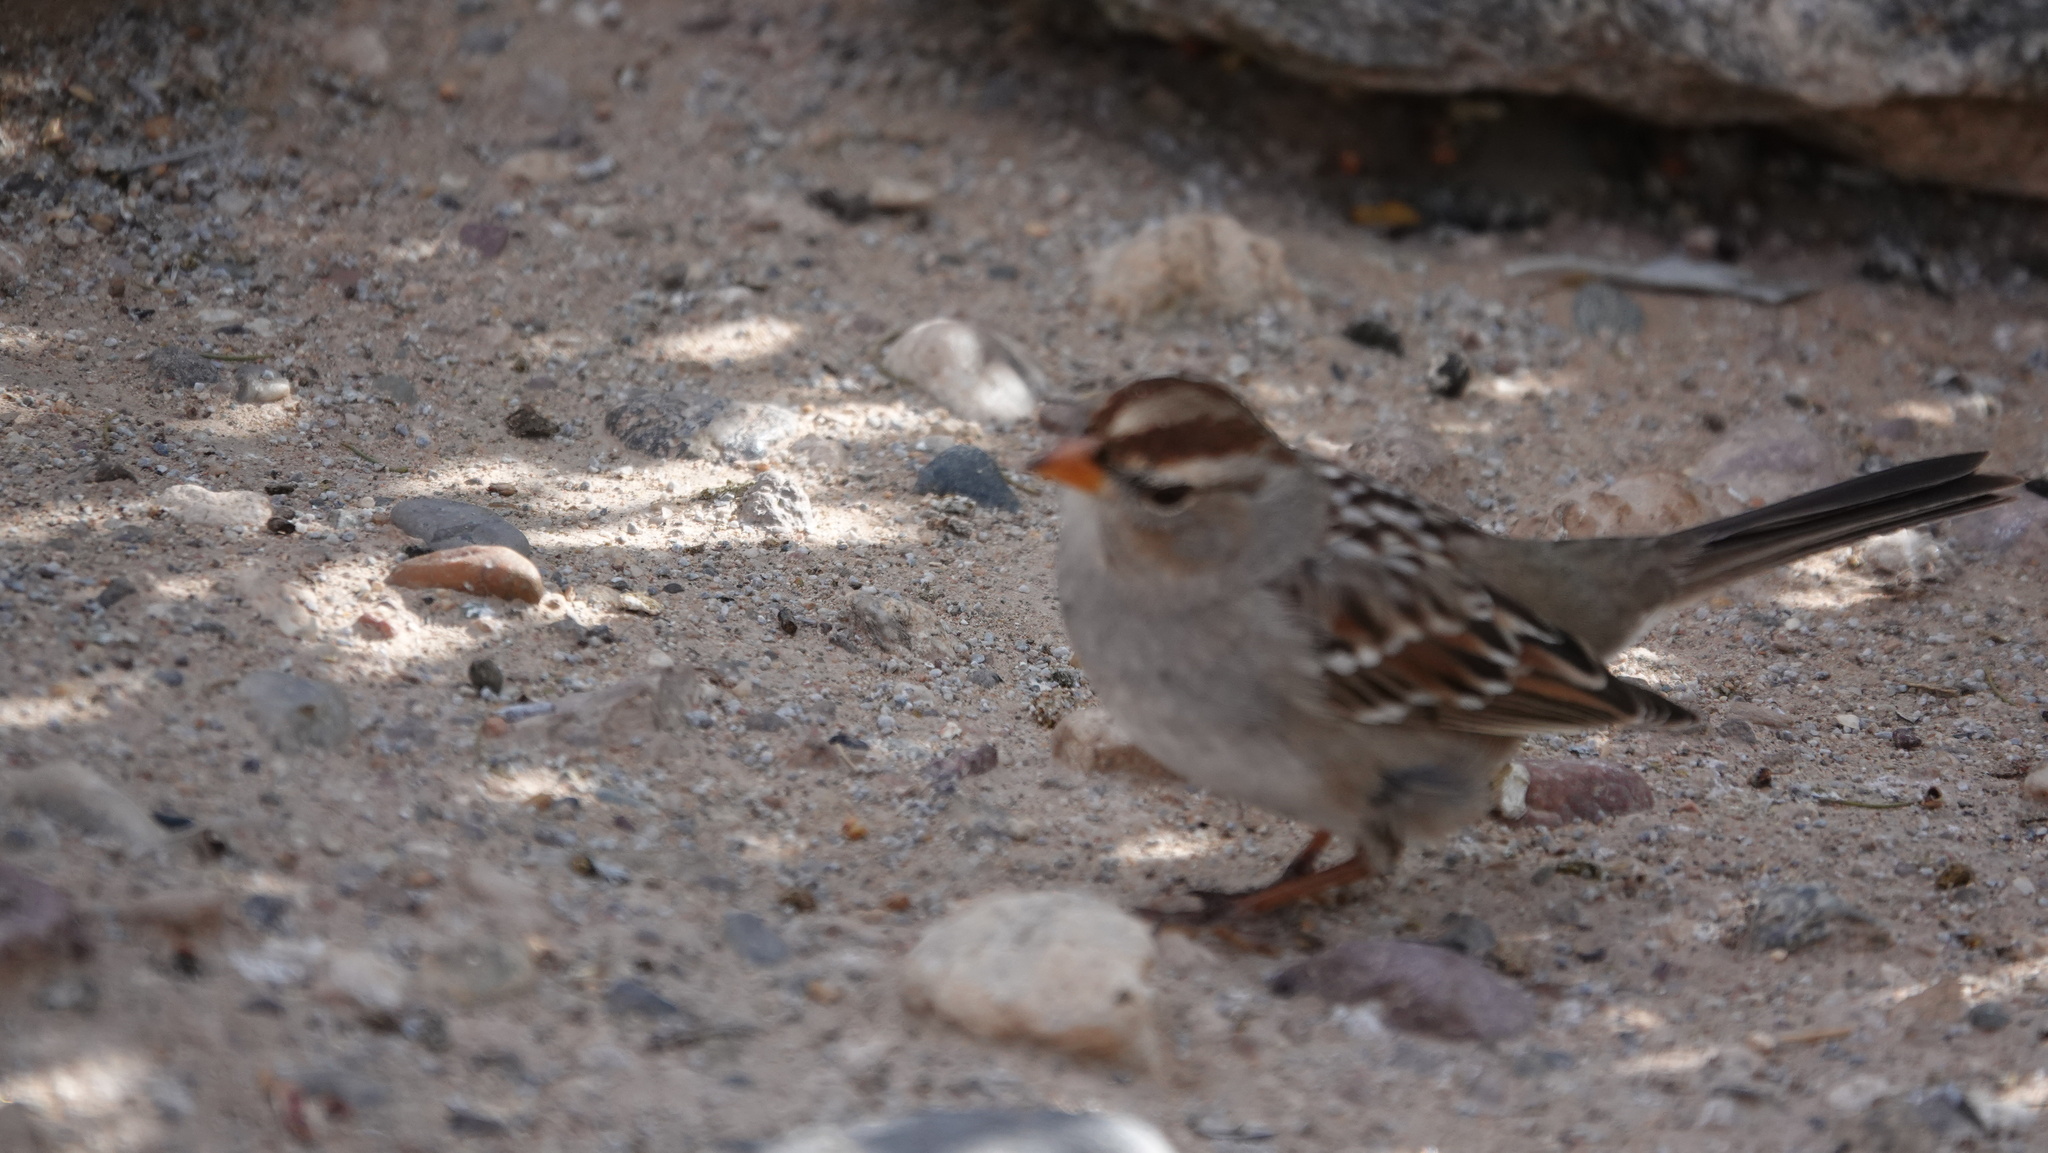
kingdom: Animalia
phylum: Chordata
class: Aves
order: Passeriformes
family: Passerellidae
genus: Zonotrichia
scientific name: Zonotrichia leucophrys
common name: White-crowned sparrow
